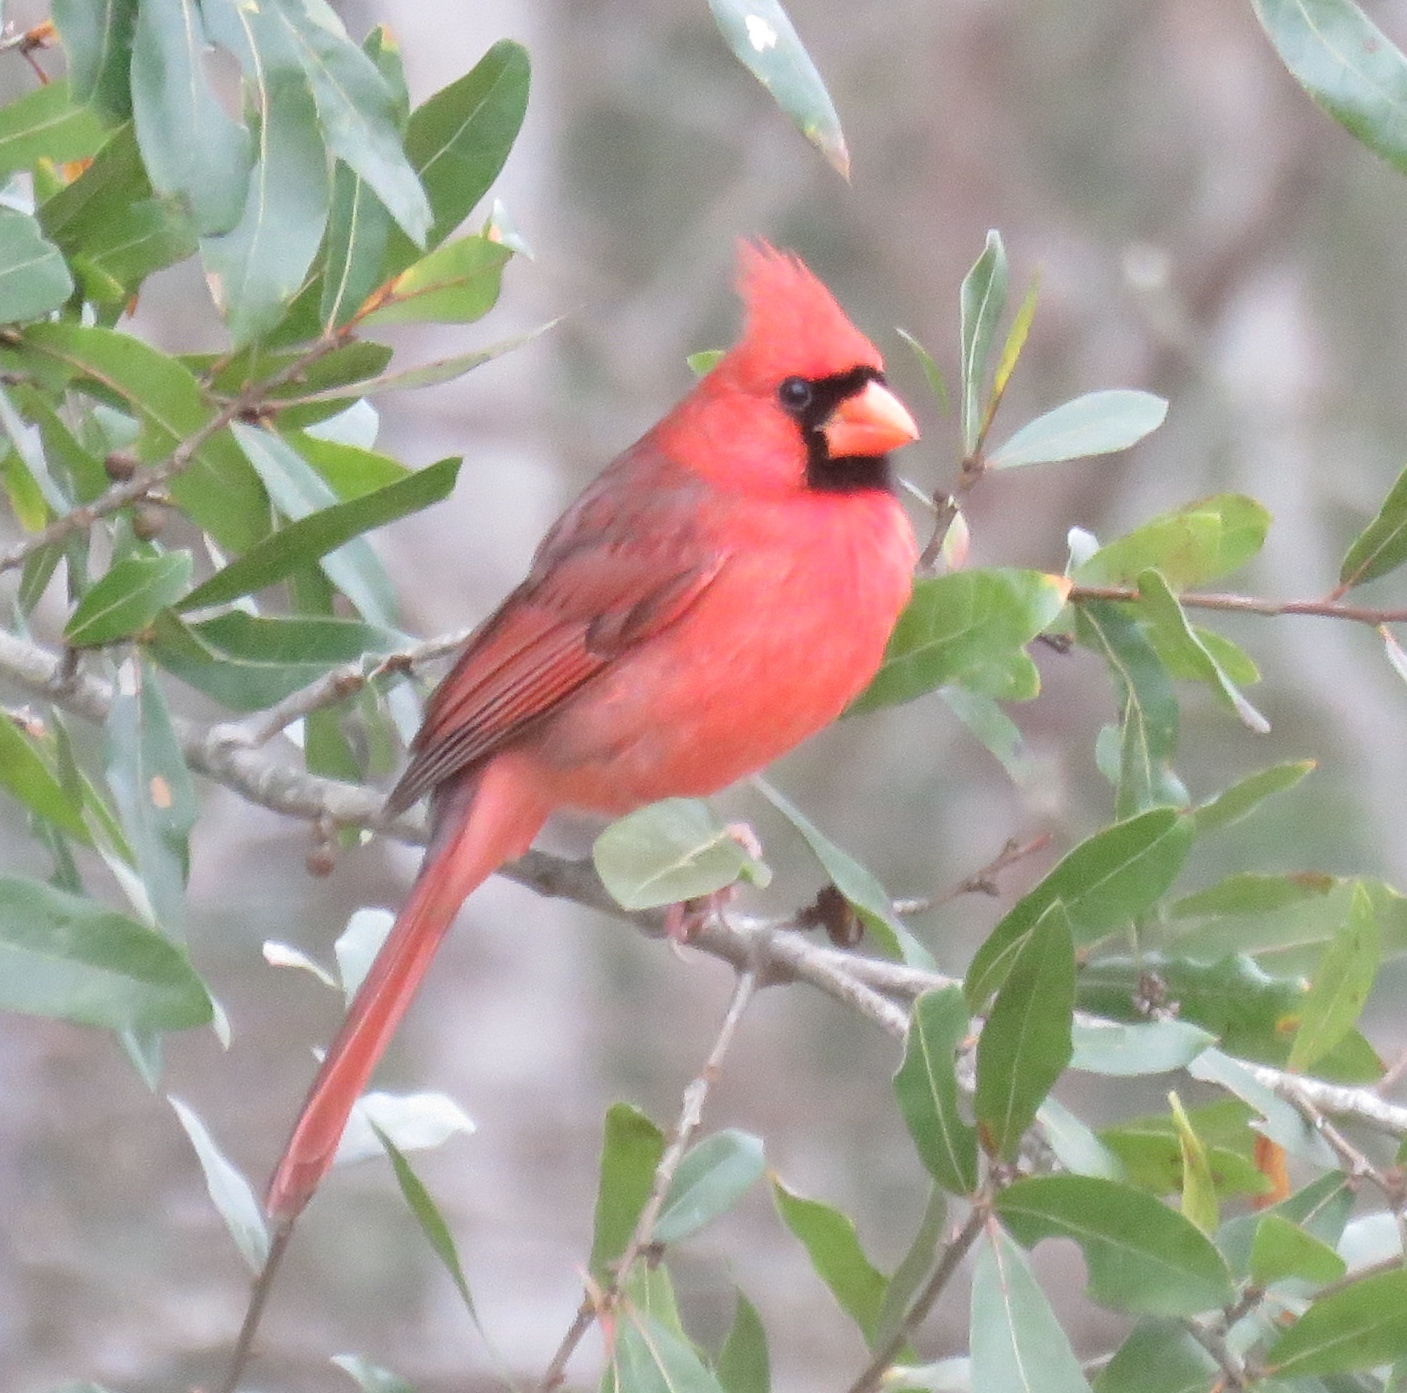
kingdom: Animalia
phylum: Chordata
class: Aves
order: Passeriformes
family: Cardinalidae
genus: Cardinalis
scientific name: Cardinalis cardinalis
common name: Northern cardinal
